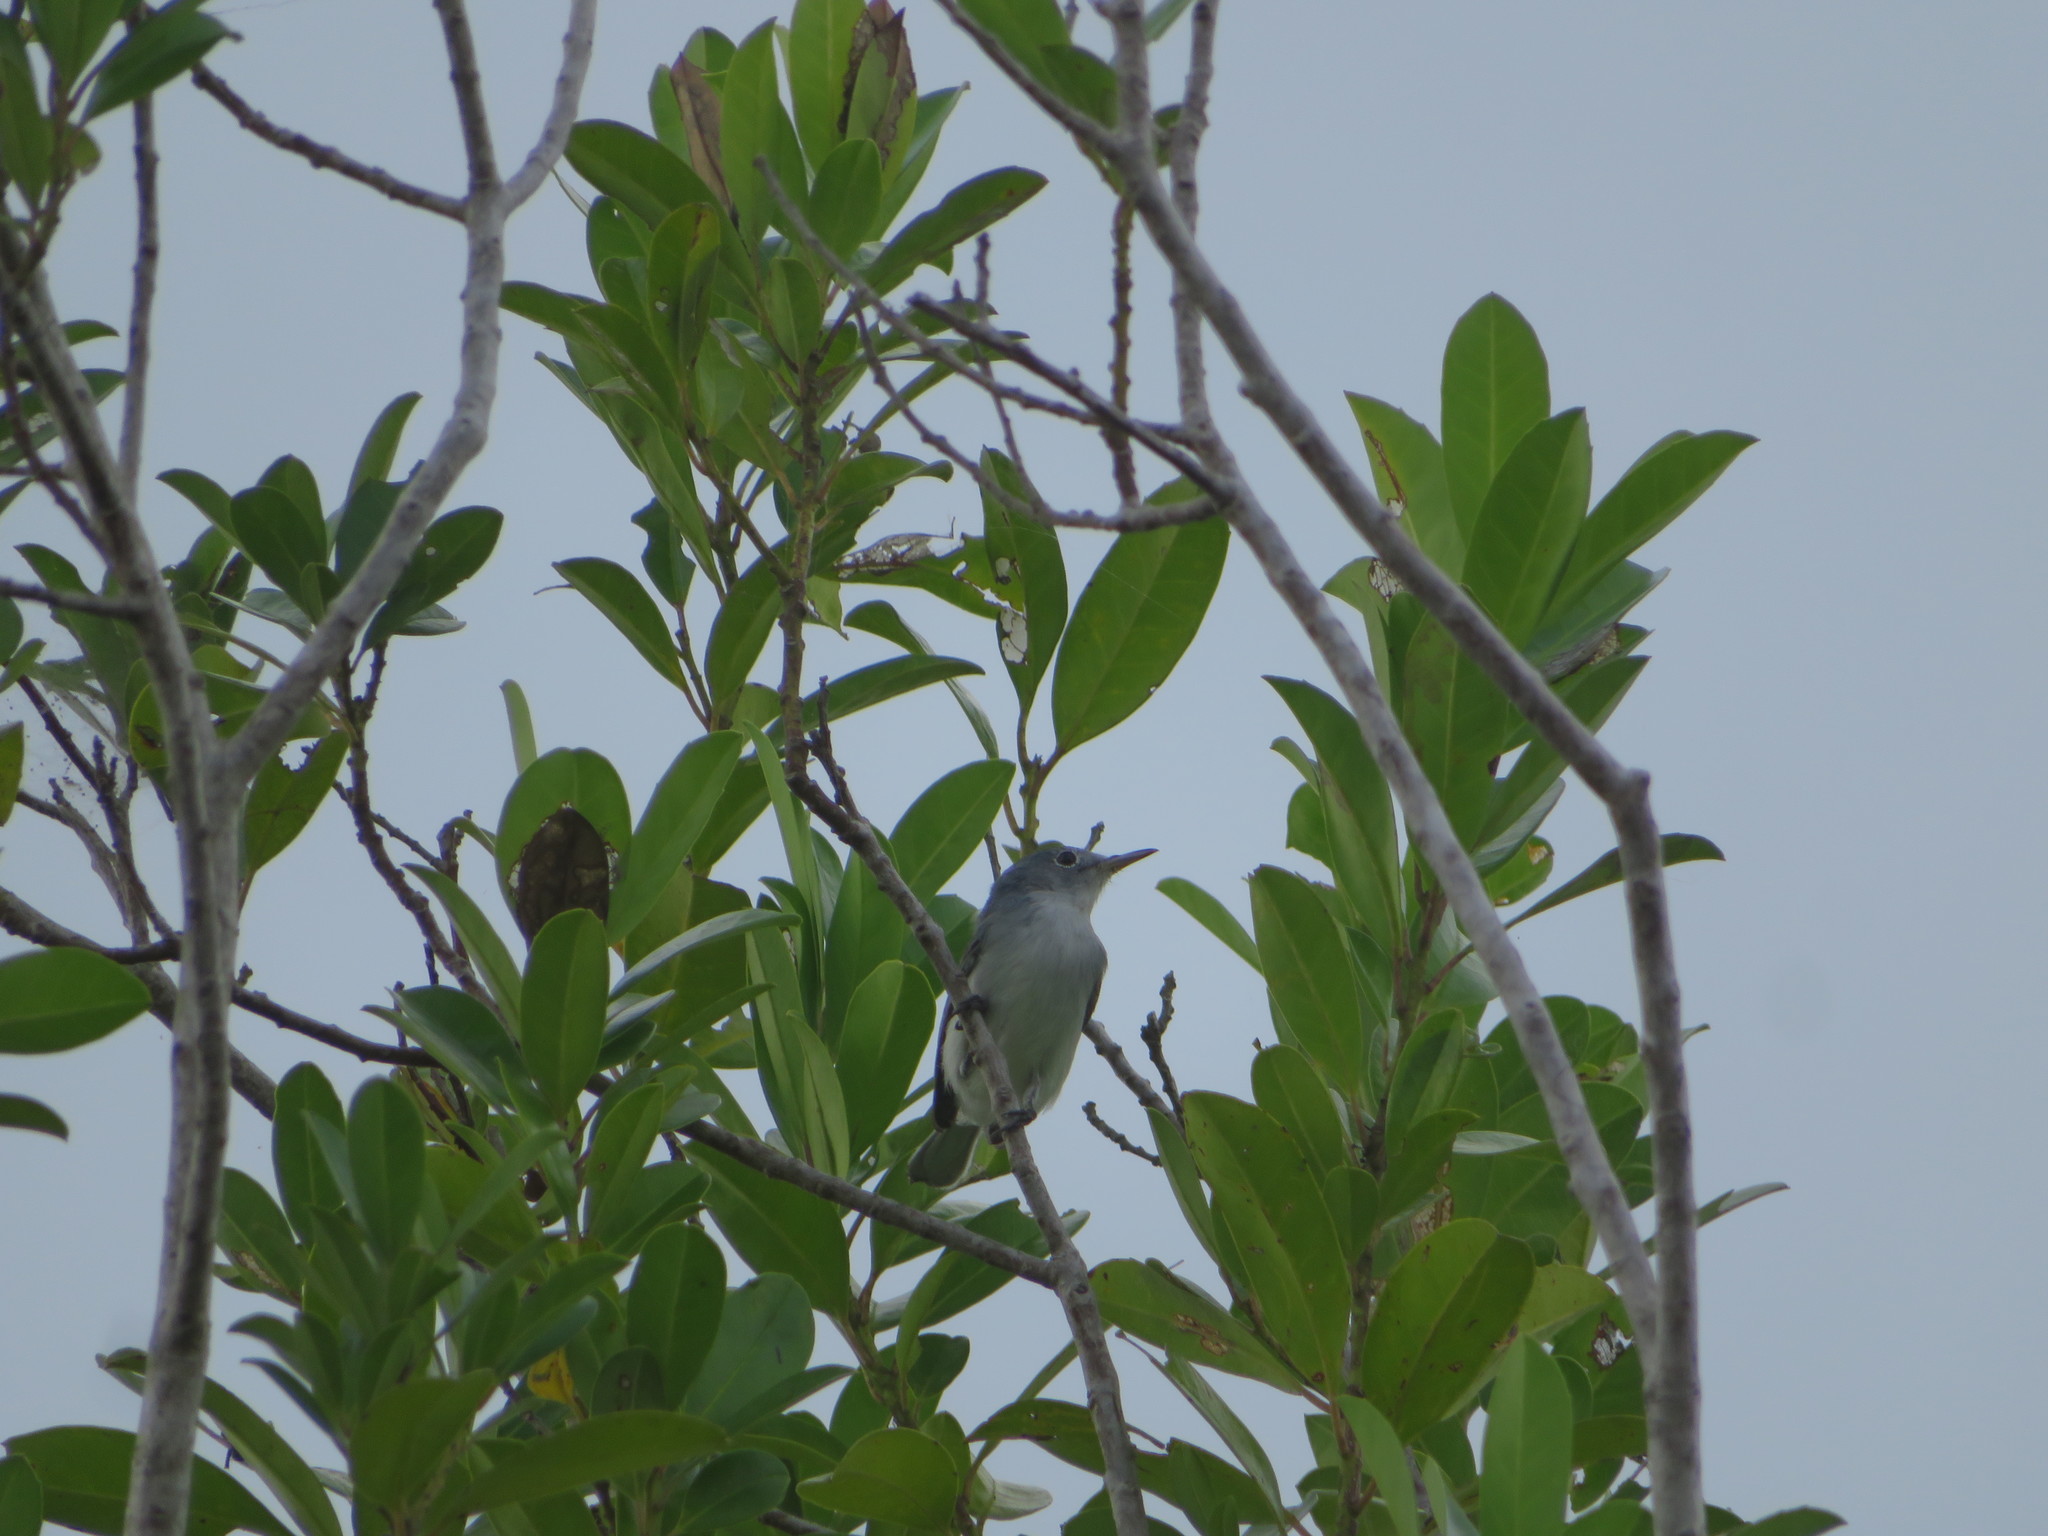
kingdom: Animalia
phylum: Chordata
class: Aves
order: Passeriformes
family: Polioptilidae
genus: Polioptila
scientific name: Polioptila caerulea
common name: Blue-gray gnatcatcher
